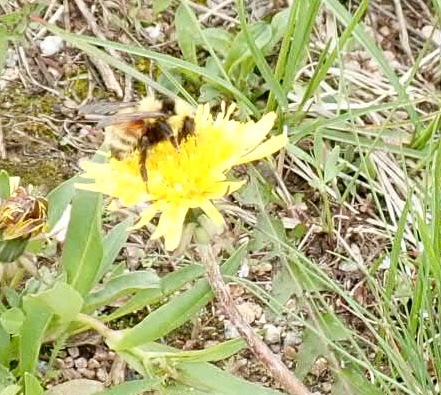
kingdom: Animalia
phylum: Arthropoda
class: Insecta
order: Hymenoptera
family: Apidae
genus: Bombus
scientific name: Bombus
